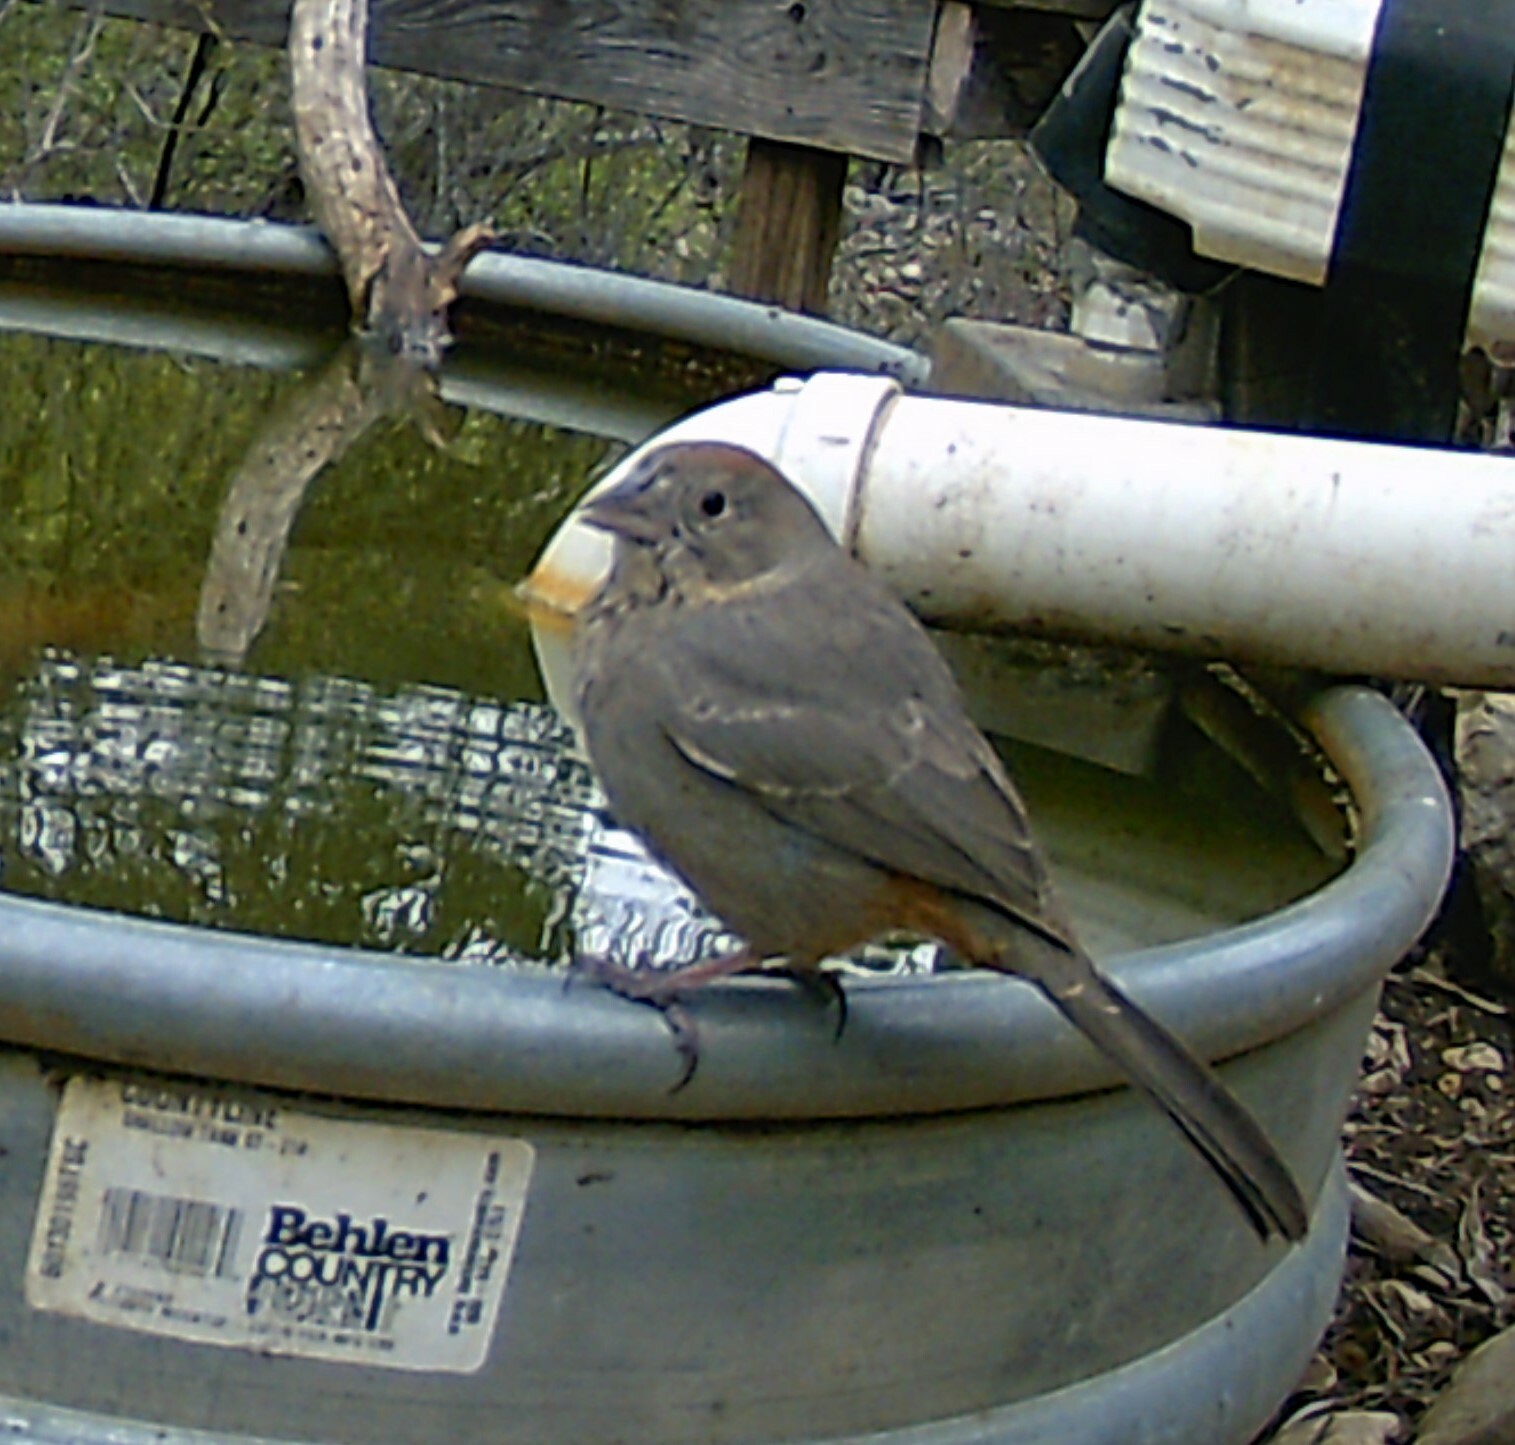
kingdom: Animalia
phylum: Chordata
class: Aves
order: Passeriformes
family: Passerellidae
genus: Melozone
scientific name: Melozone fusca
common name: Canyon towhee
